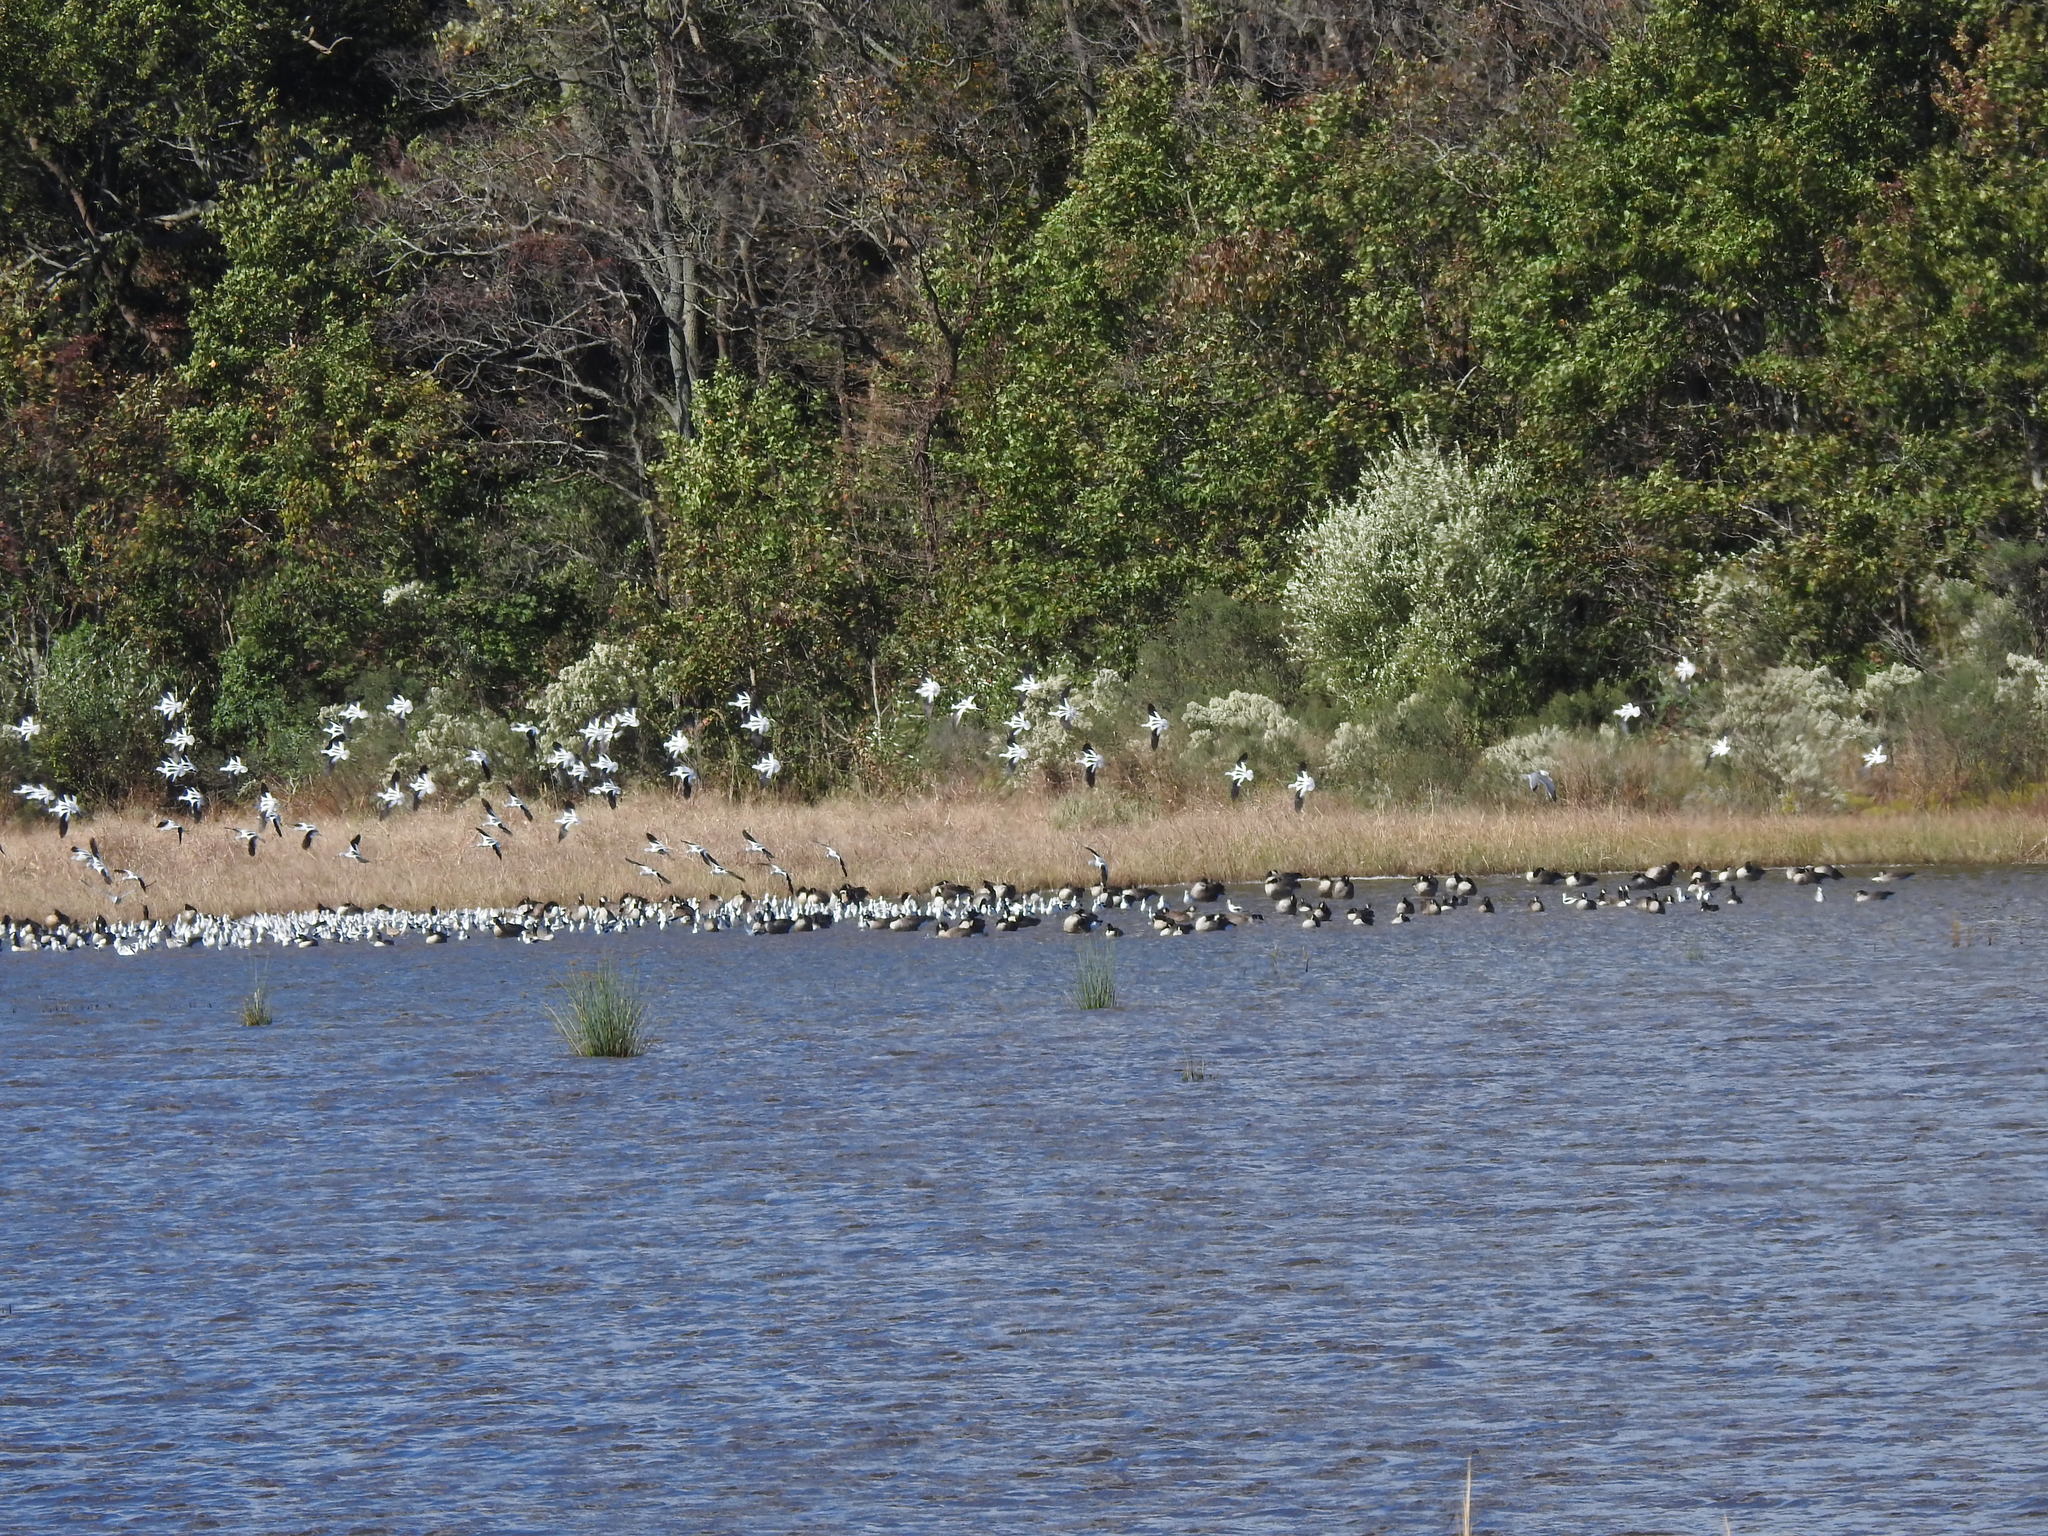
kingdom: Animalia
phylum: Chordata
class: Aves
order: Charadriiformes
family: Recurvirostridae
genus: Recurvirostra
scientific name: Recurvirostra americana
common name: American avocet
